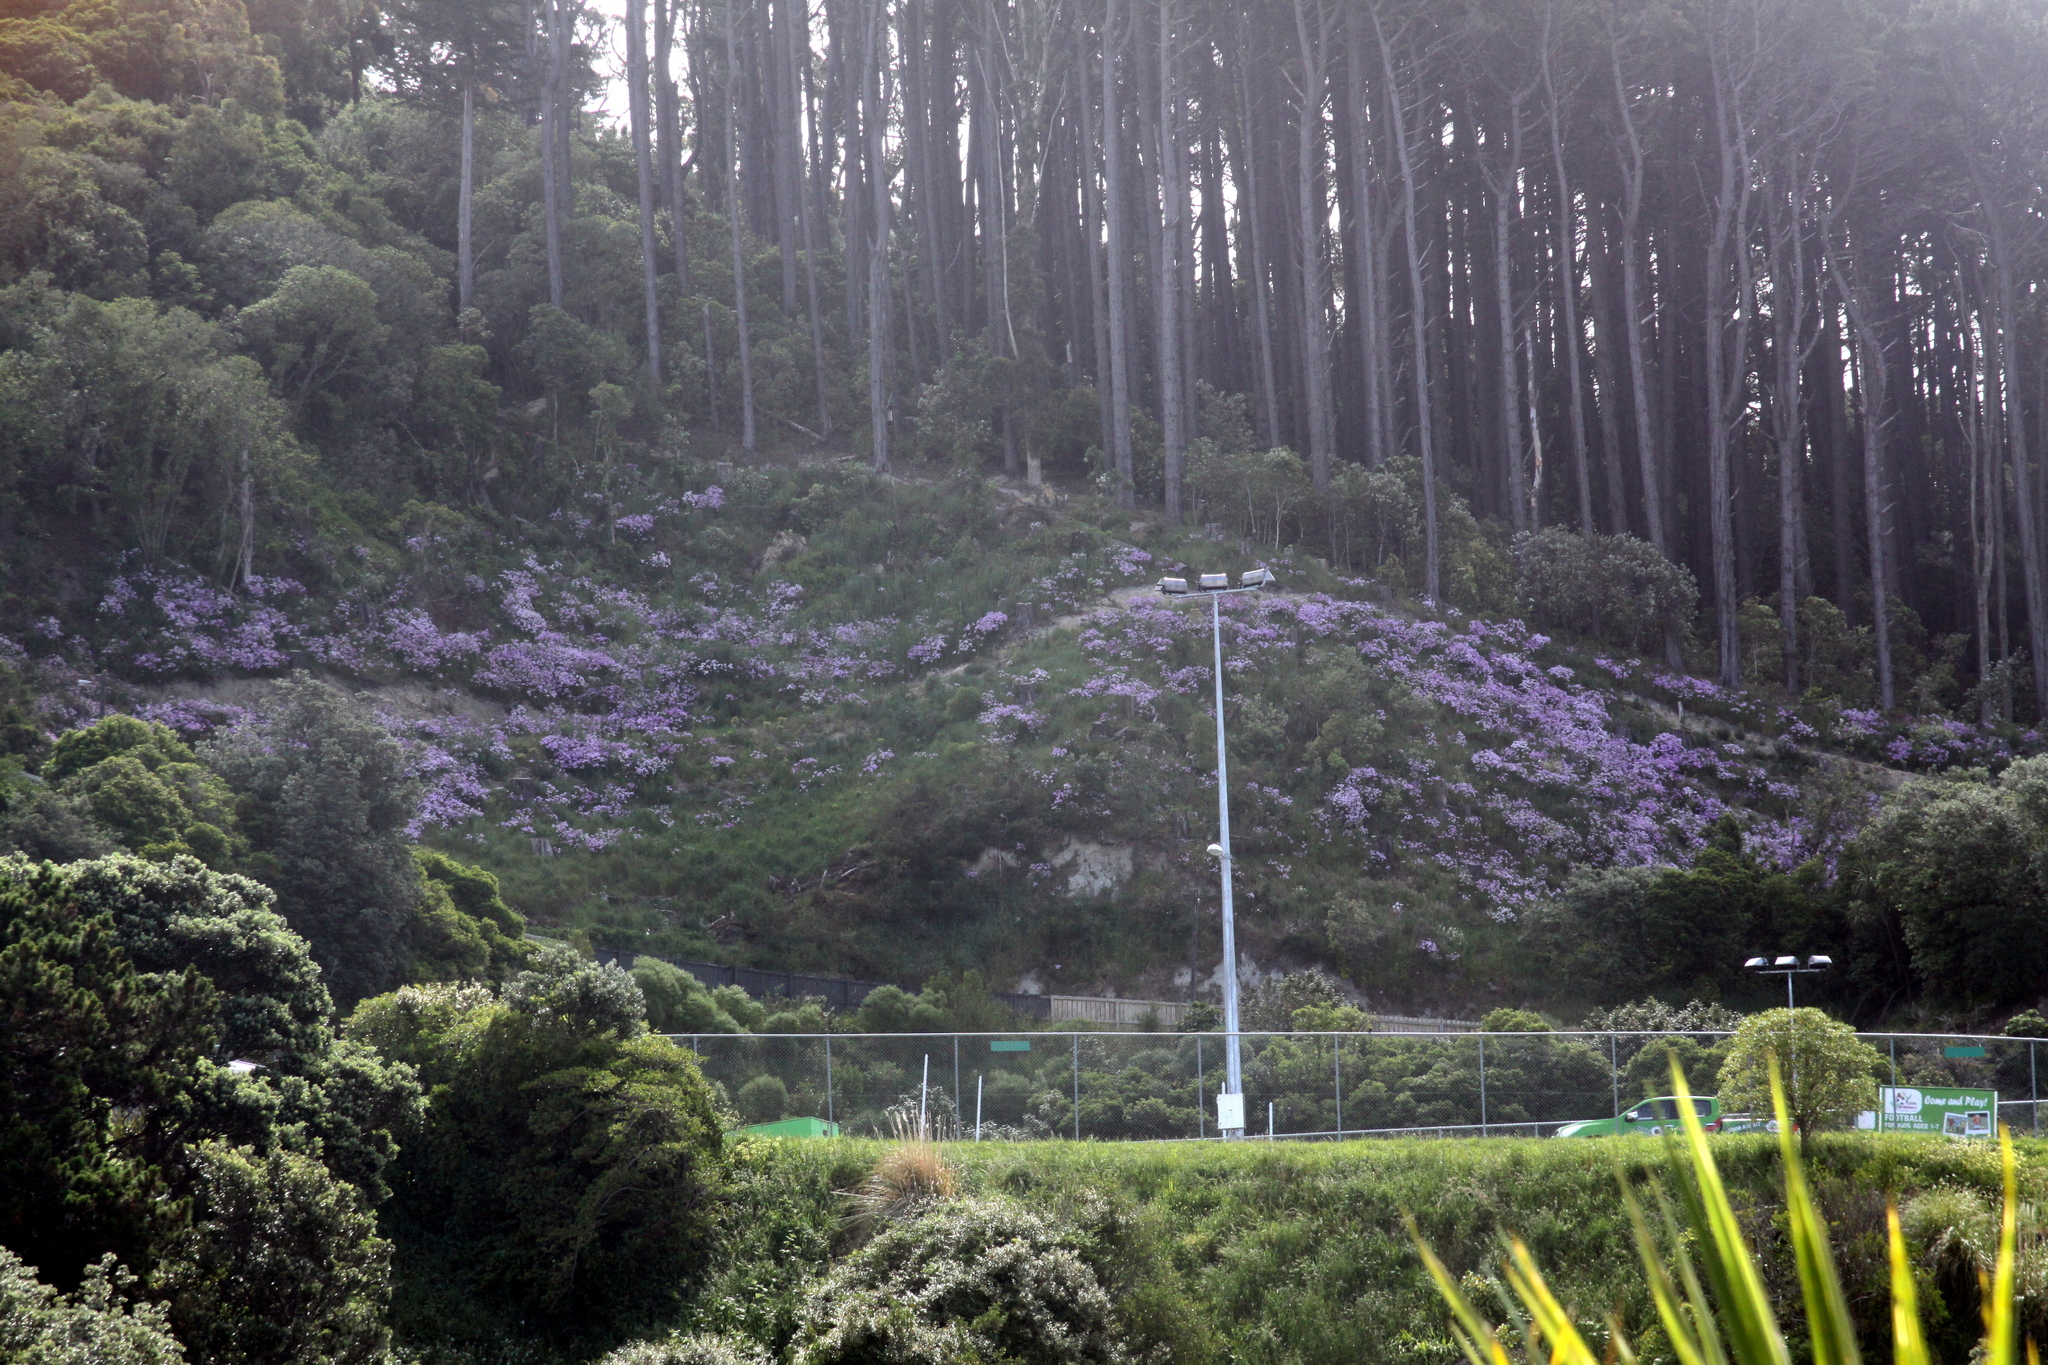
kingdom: Plantae
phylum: Tracheophyta
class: Magnoliopsida
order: Asterales
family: Asteraceae
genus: Senecio
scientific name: Senecio glastifolius
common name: Woad-leaved ragwort
